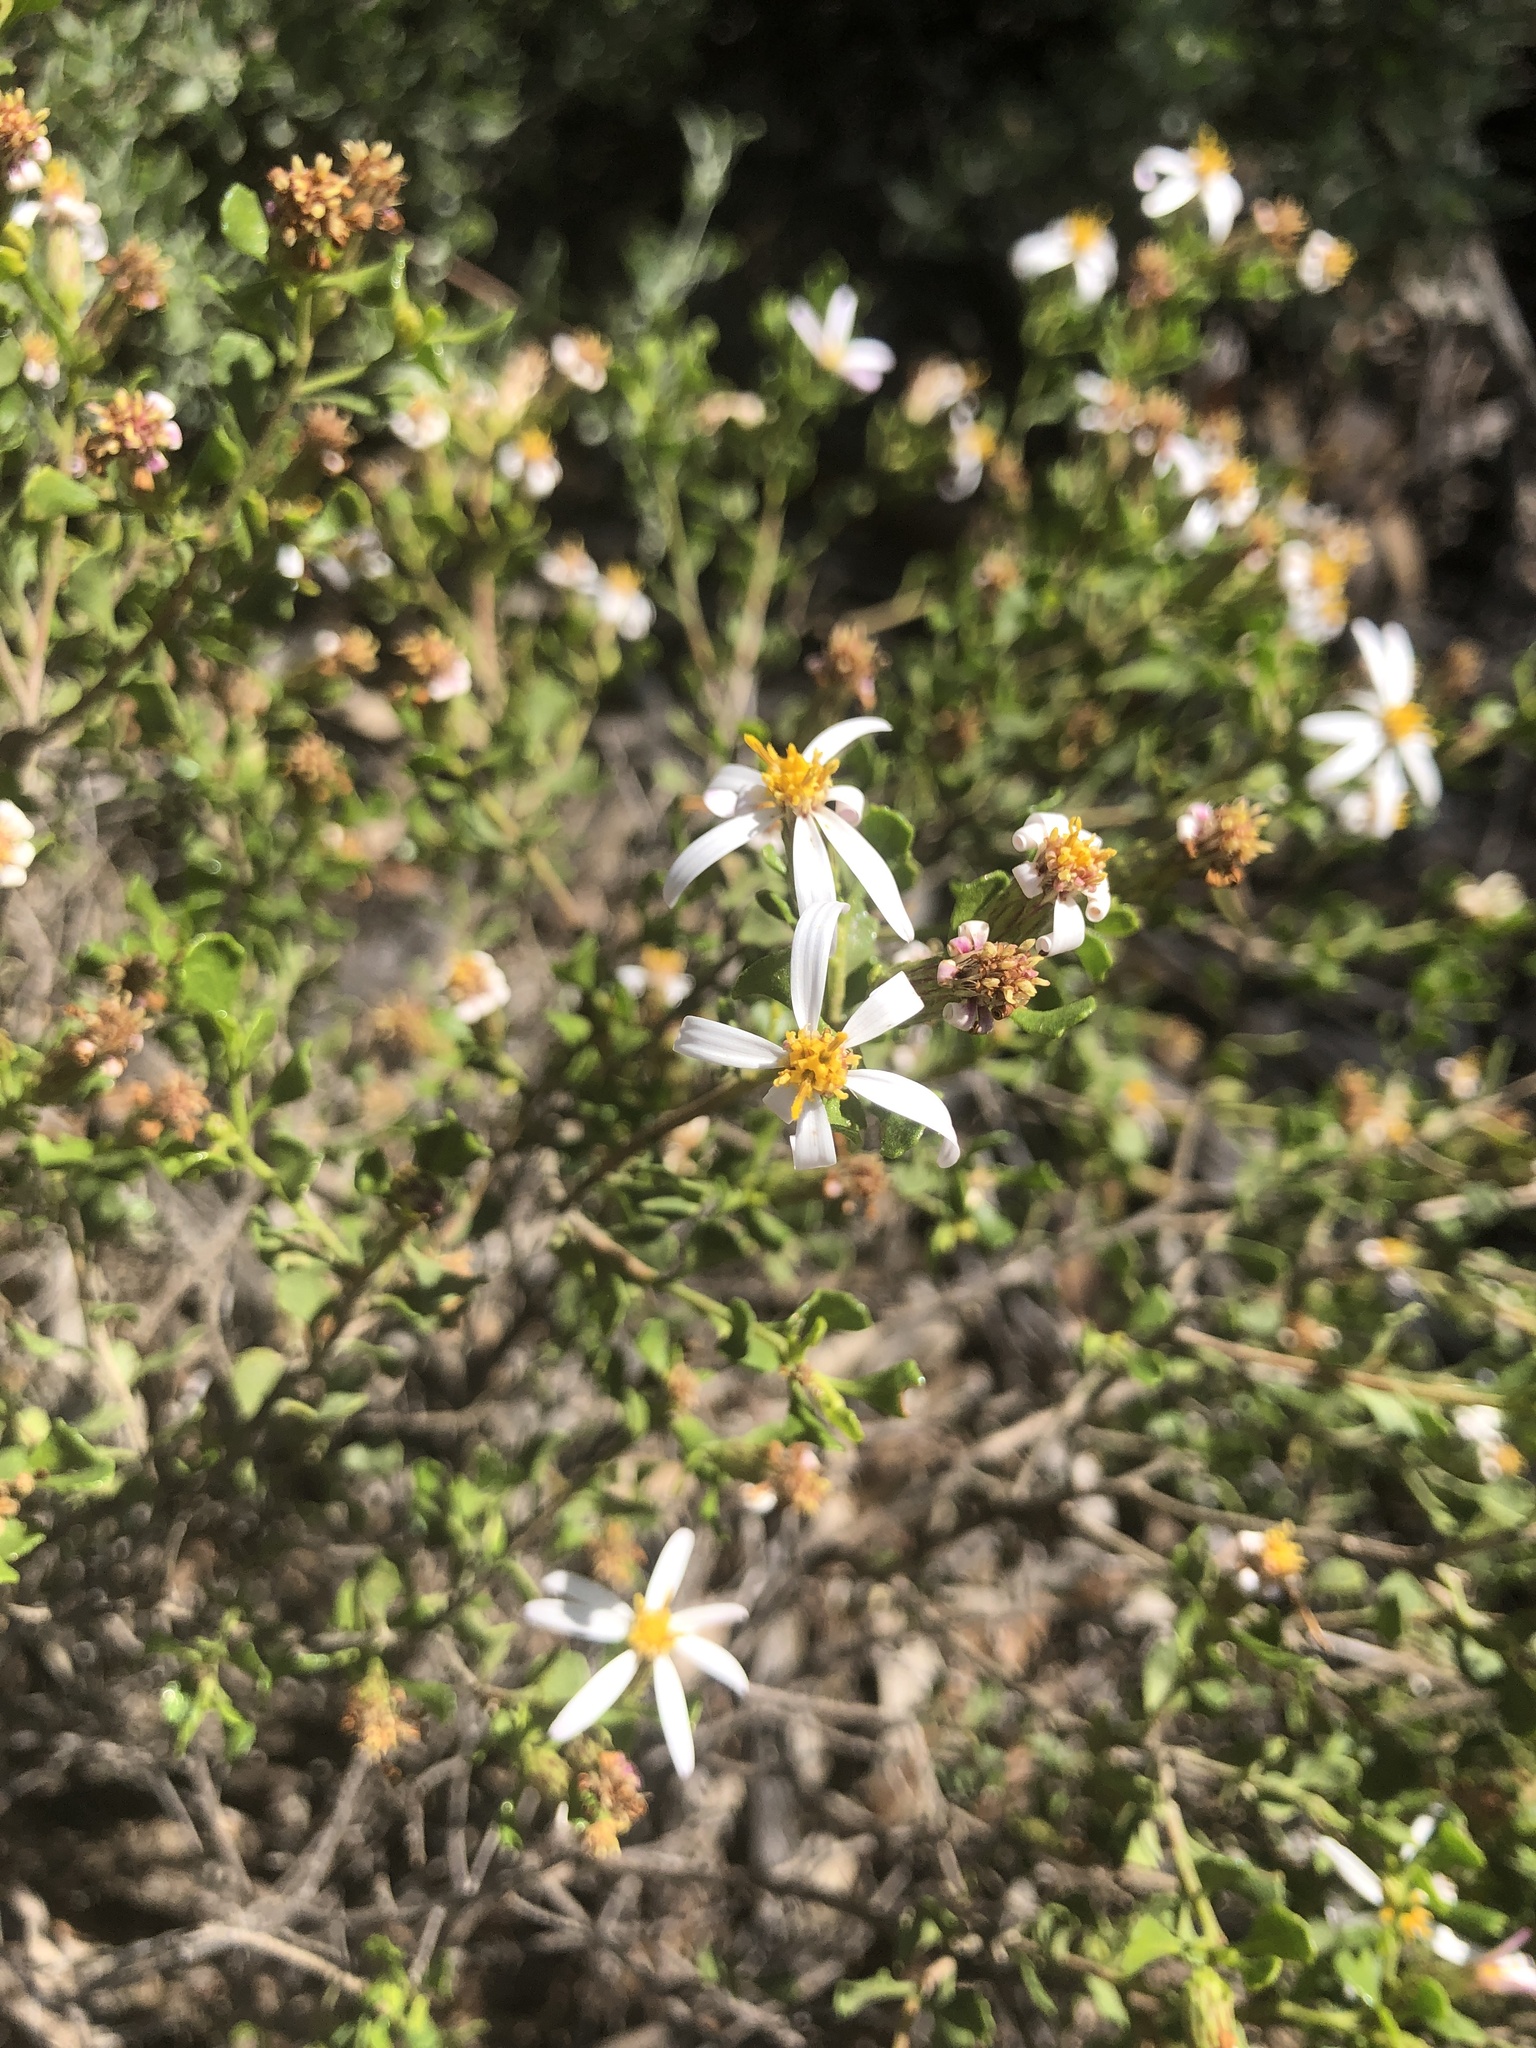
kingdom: Plantae
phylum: Tracheophyta
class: Magnoliopsida
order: Asterales
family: Asteraceae
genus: Walsholaria
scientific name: Walsholaria muelleri
